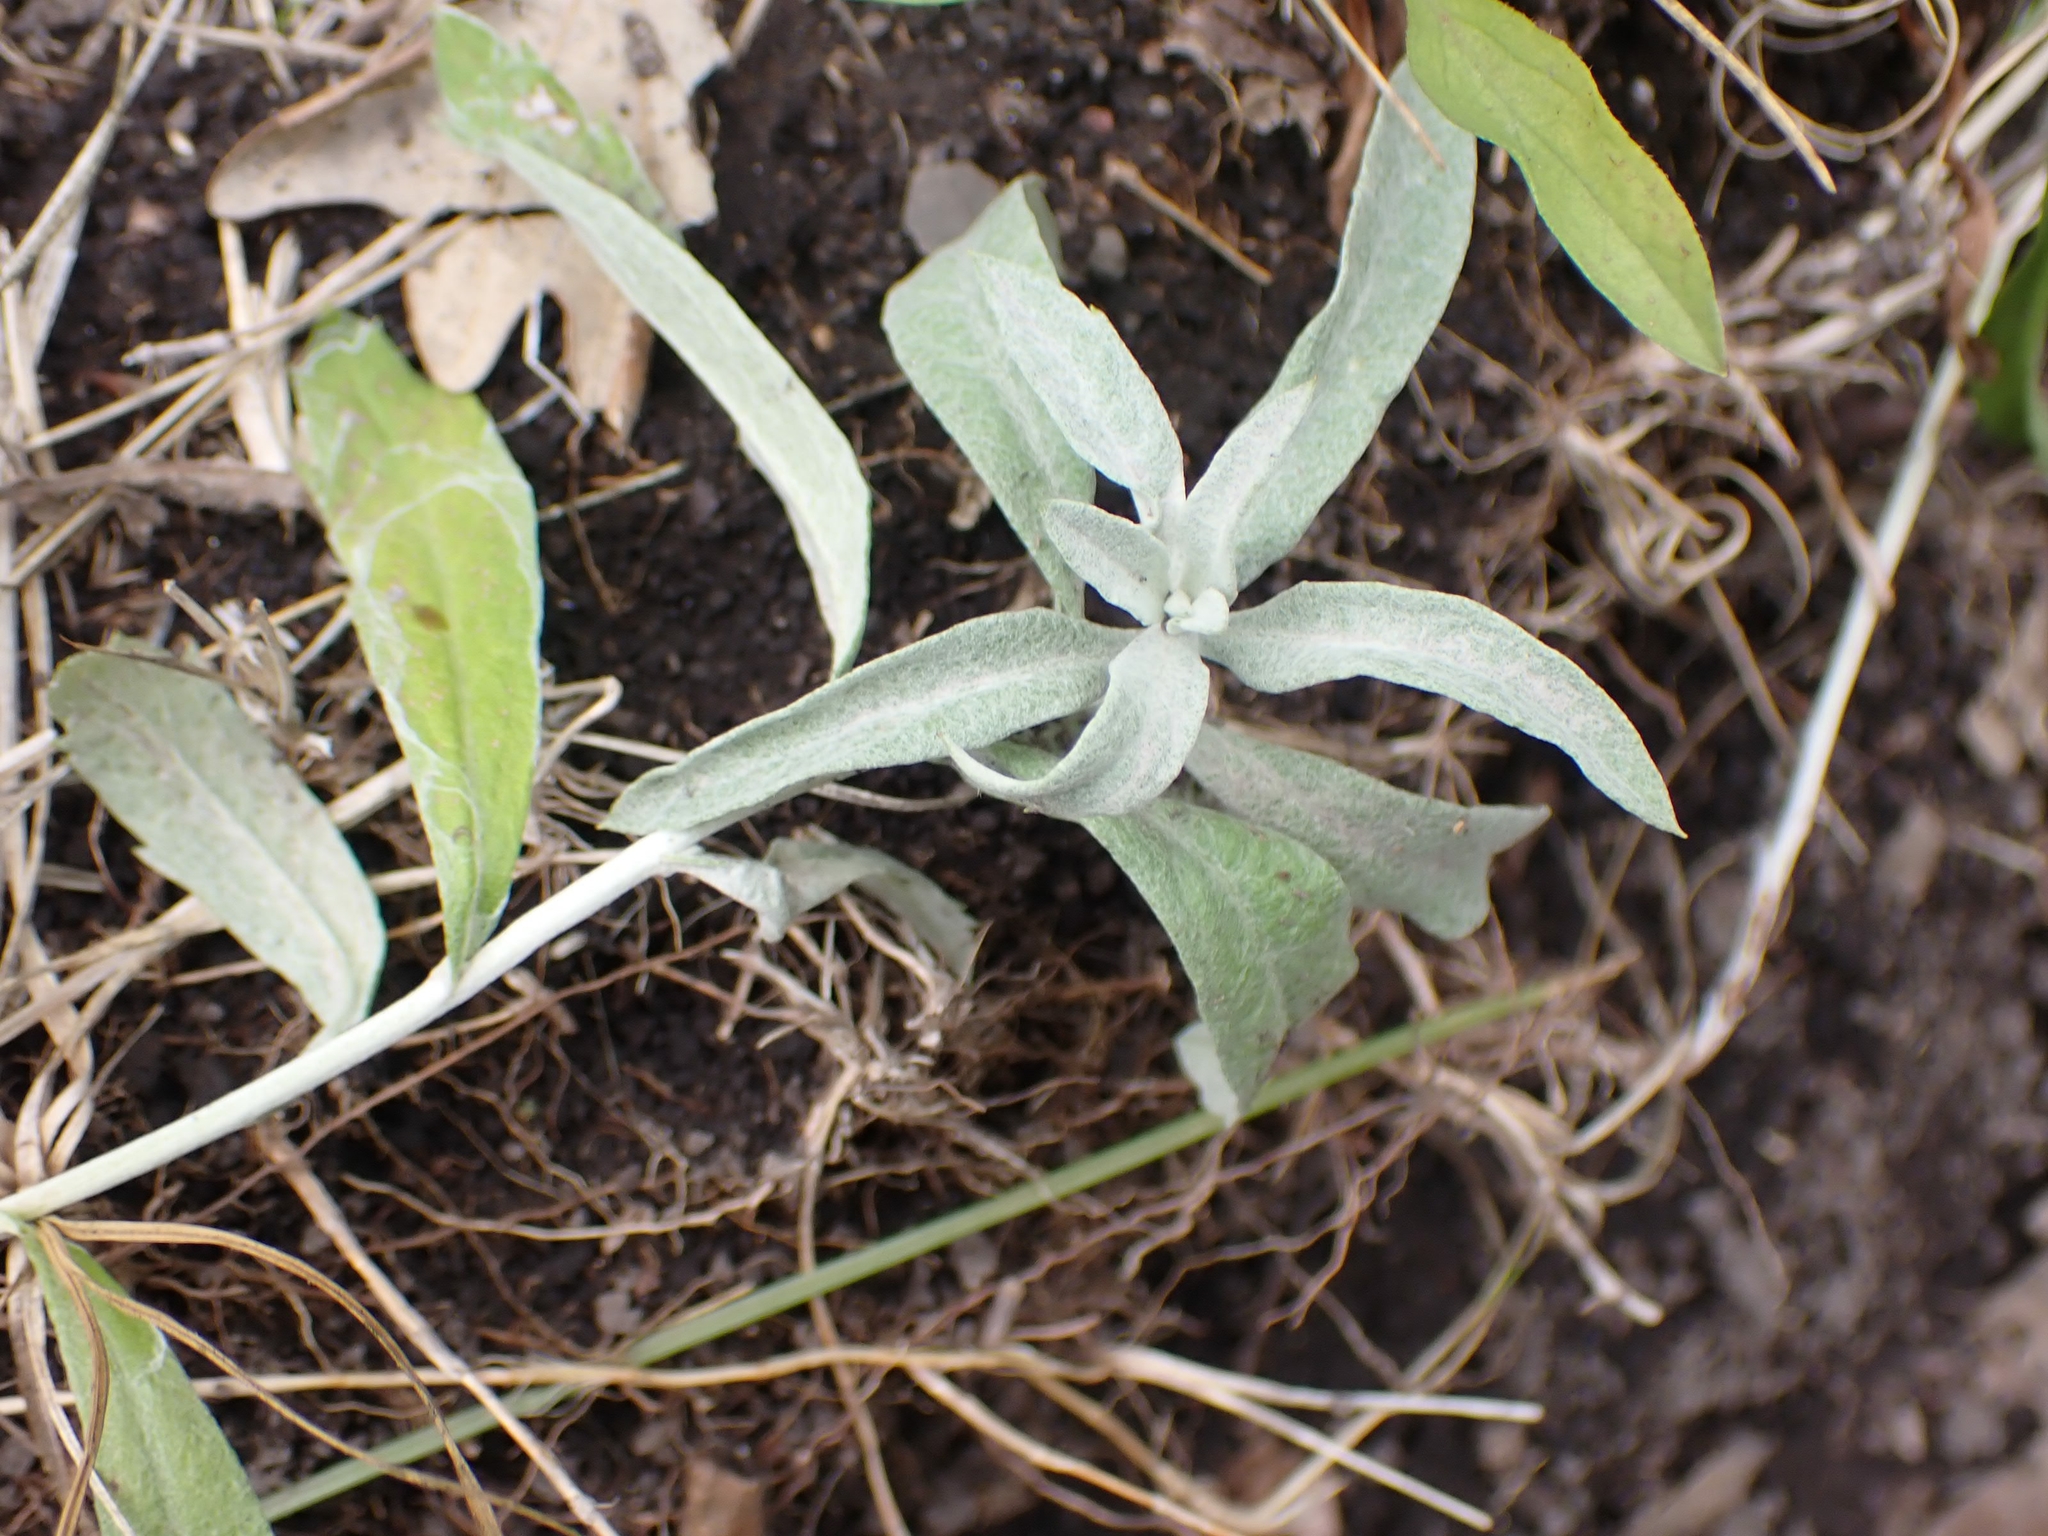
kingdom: Plantae
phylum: Tracheophyta
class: Magnoliopsida
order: Asterales
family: Asteraceae
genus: Artemisia
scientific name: Artemisia ludoviciana
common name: Western mugwort
